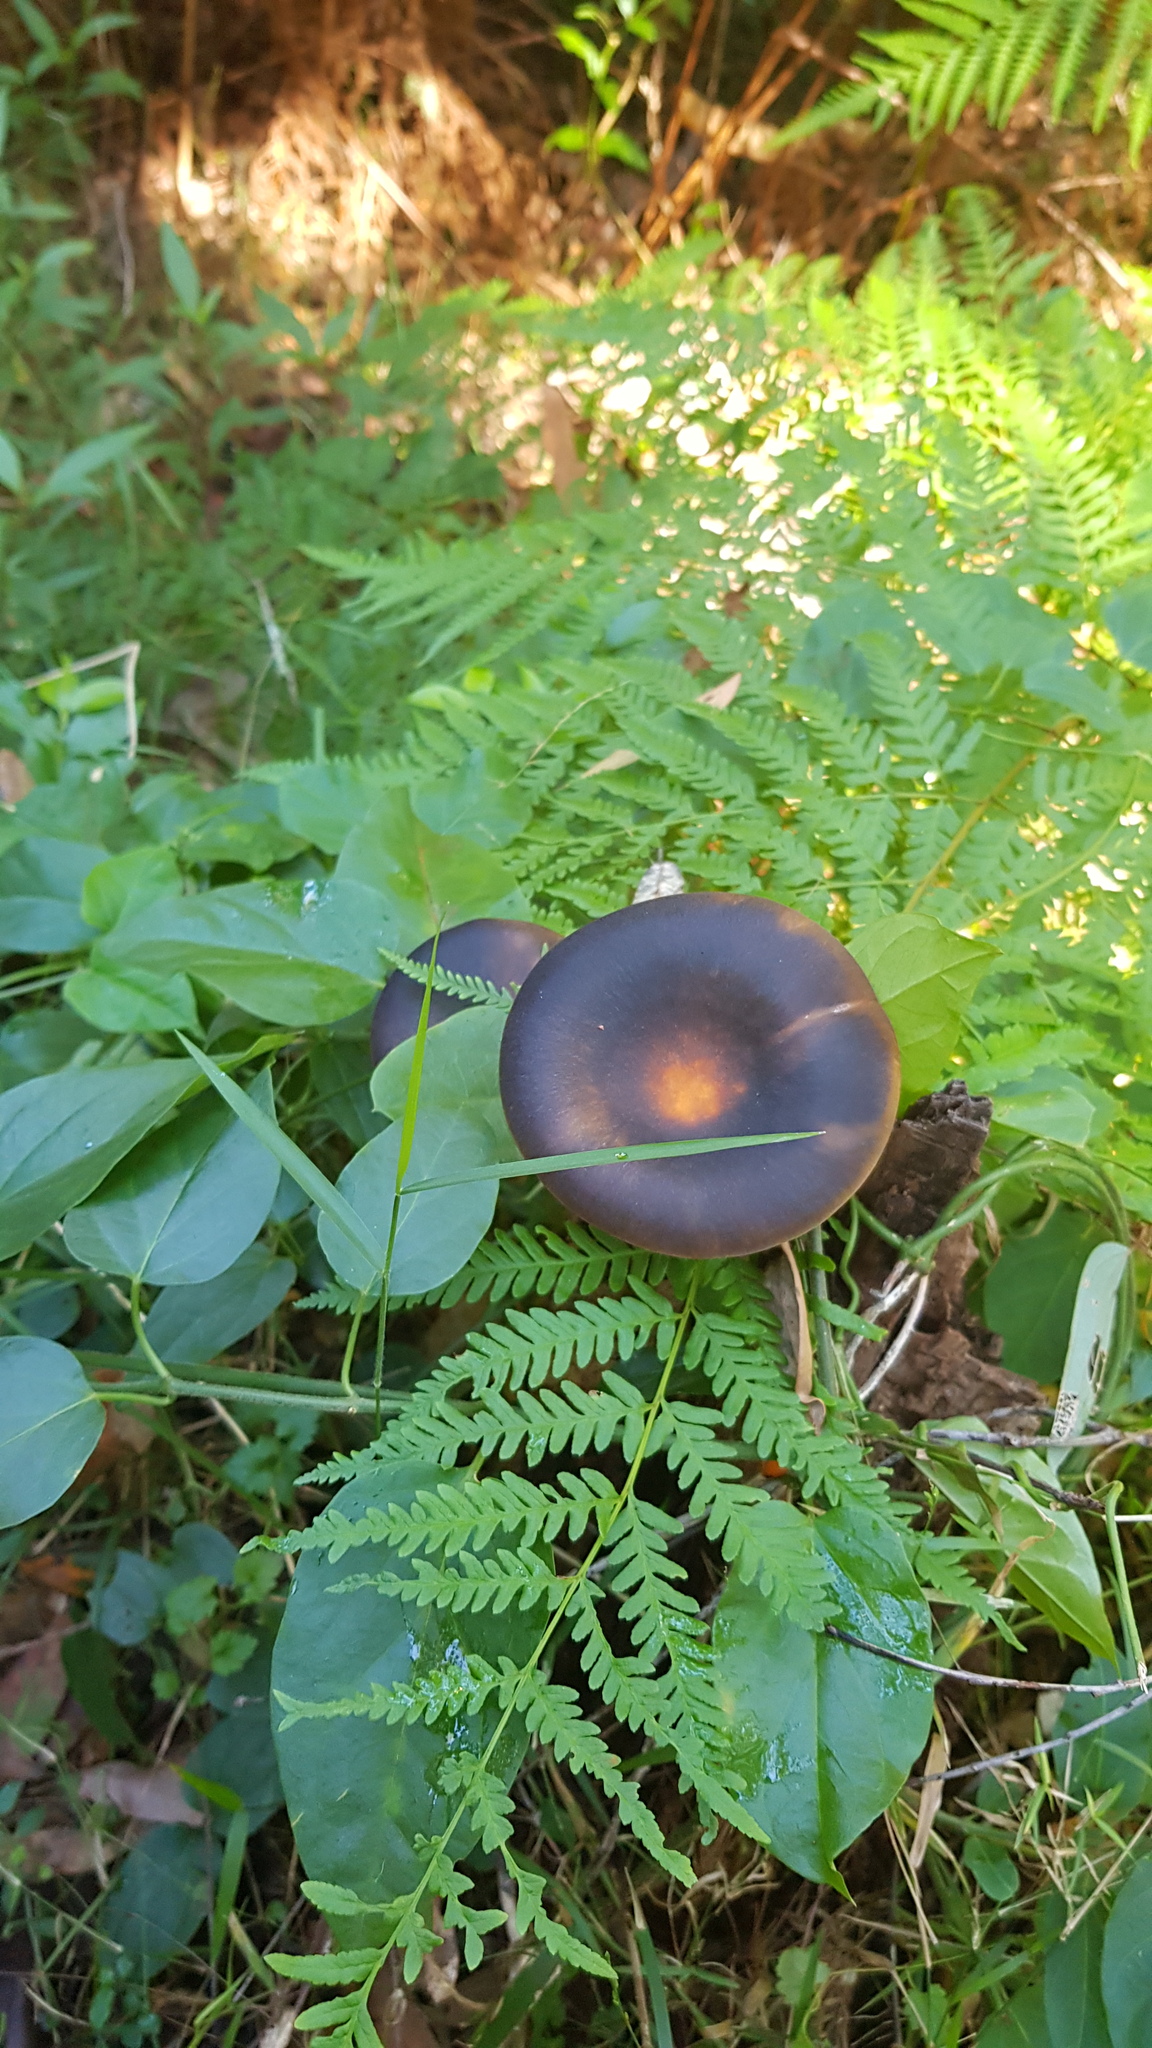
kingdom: Fungi
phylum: Basidiomycota
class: Agaricomycetes
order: Agaricales
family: Omphalotaceae
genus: Omphalotus
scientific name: Omphalotus nidiformis
